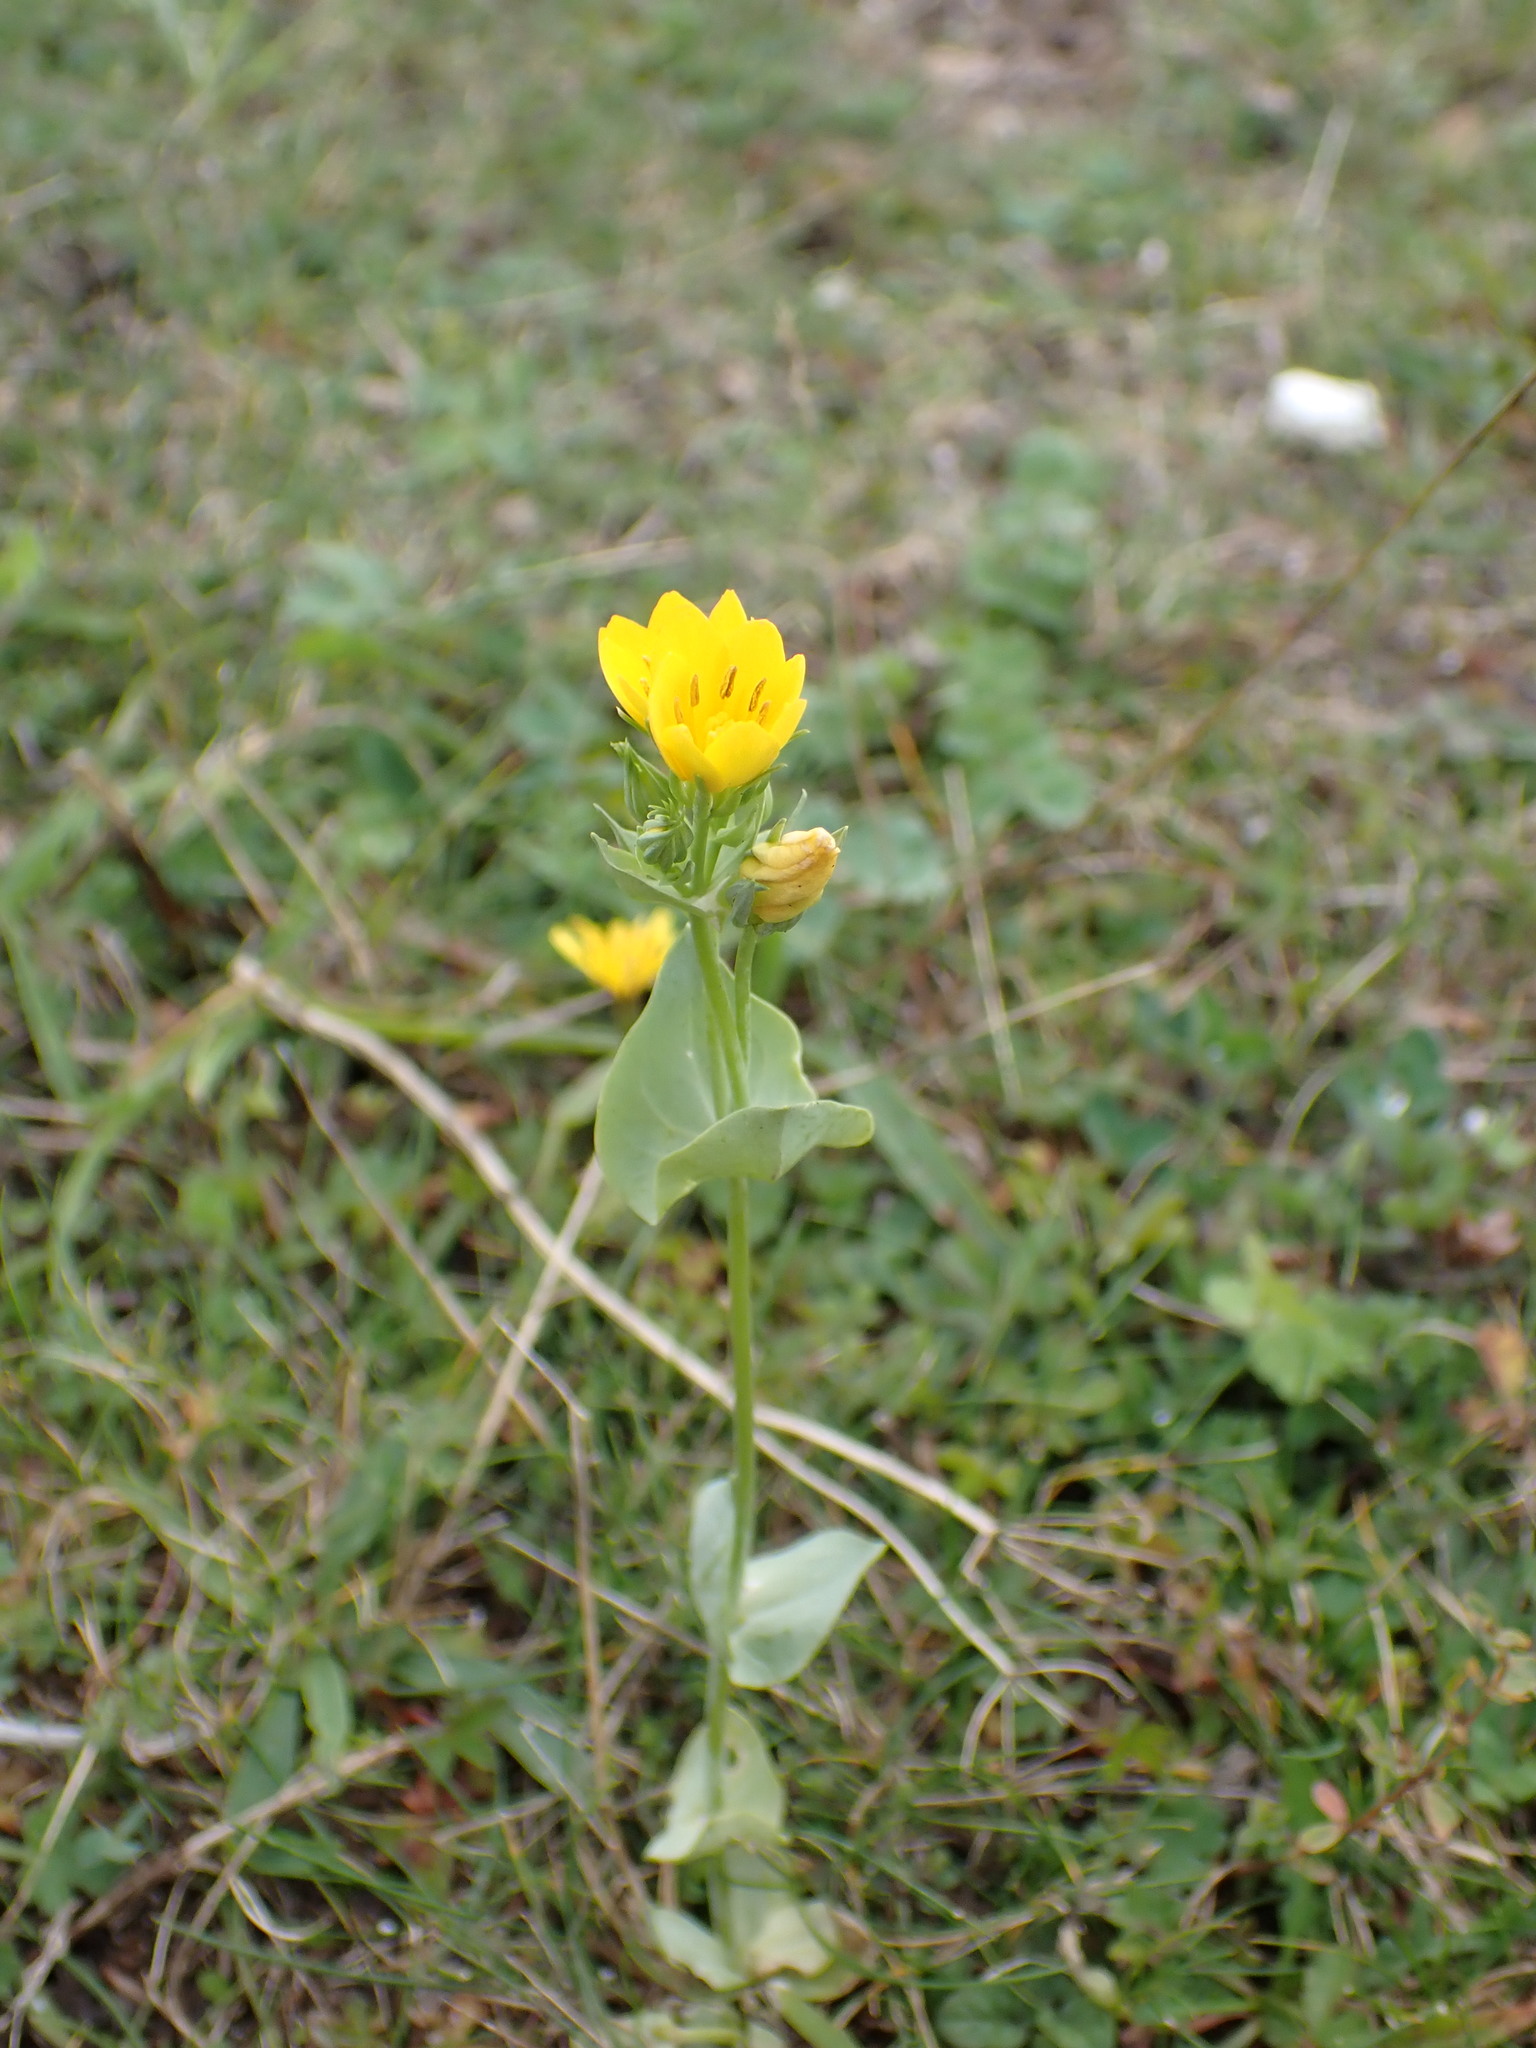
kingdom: Plantae
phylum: Tracheophyta
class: Magnoliopsida
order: Gentianales
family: Gentianaceae
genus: Blackstonia
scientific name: Blackstonia perfoliata
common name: Yellow-wort
